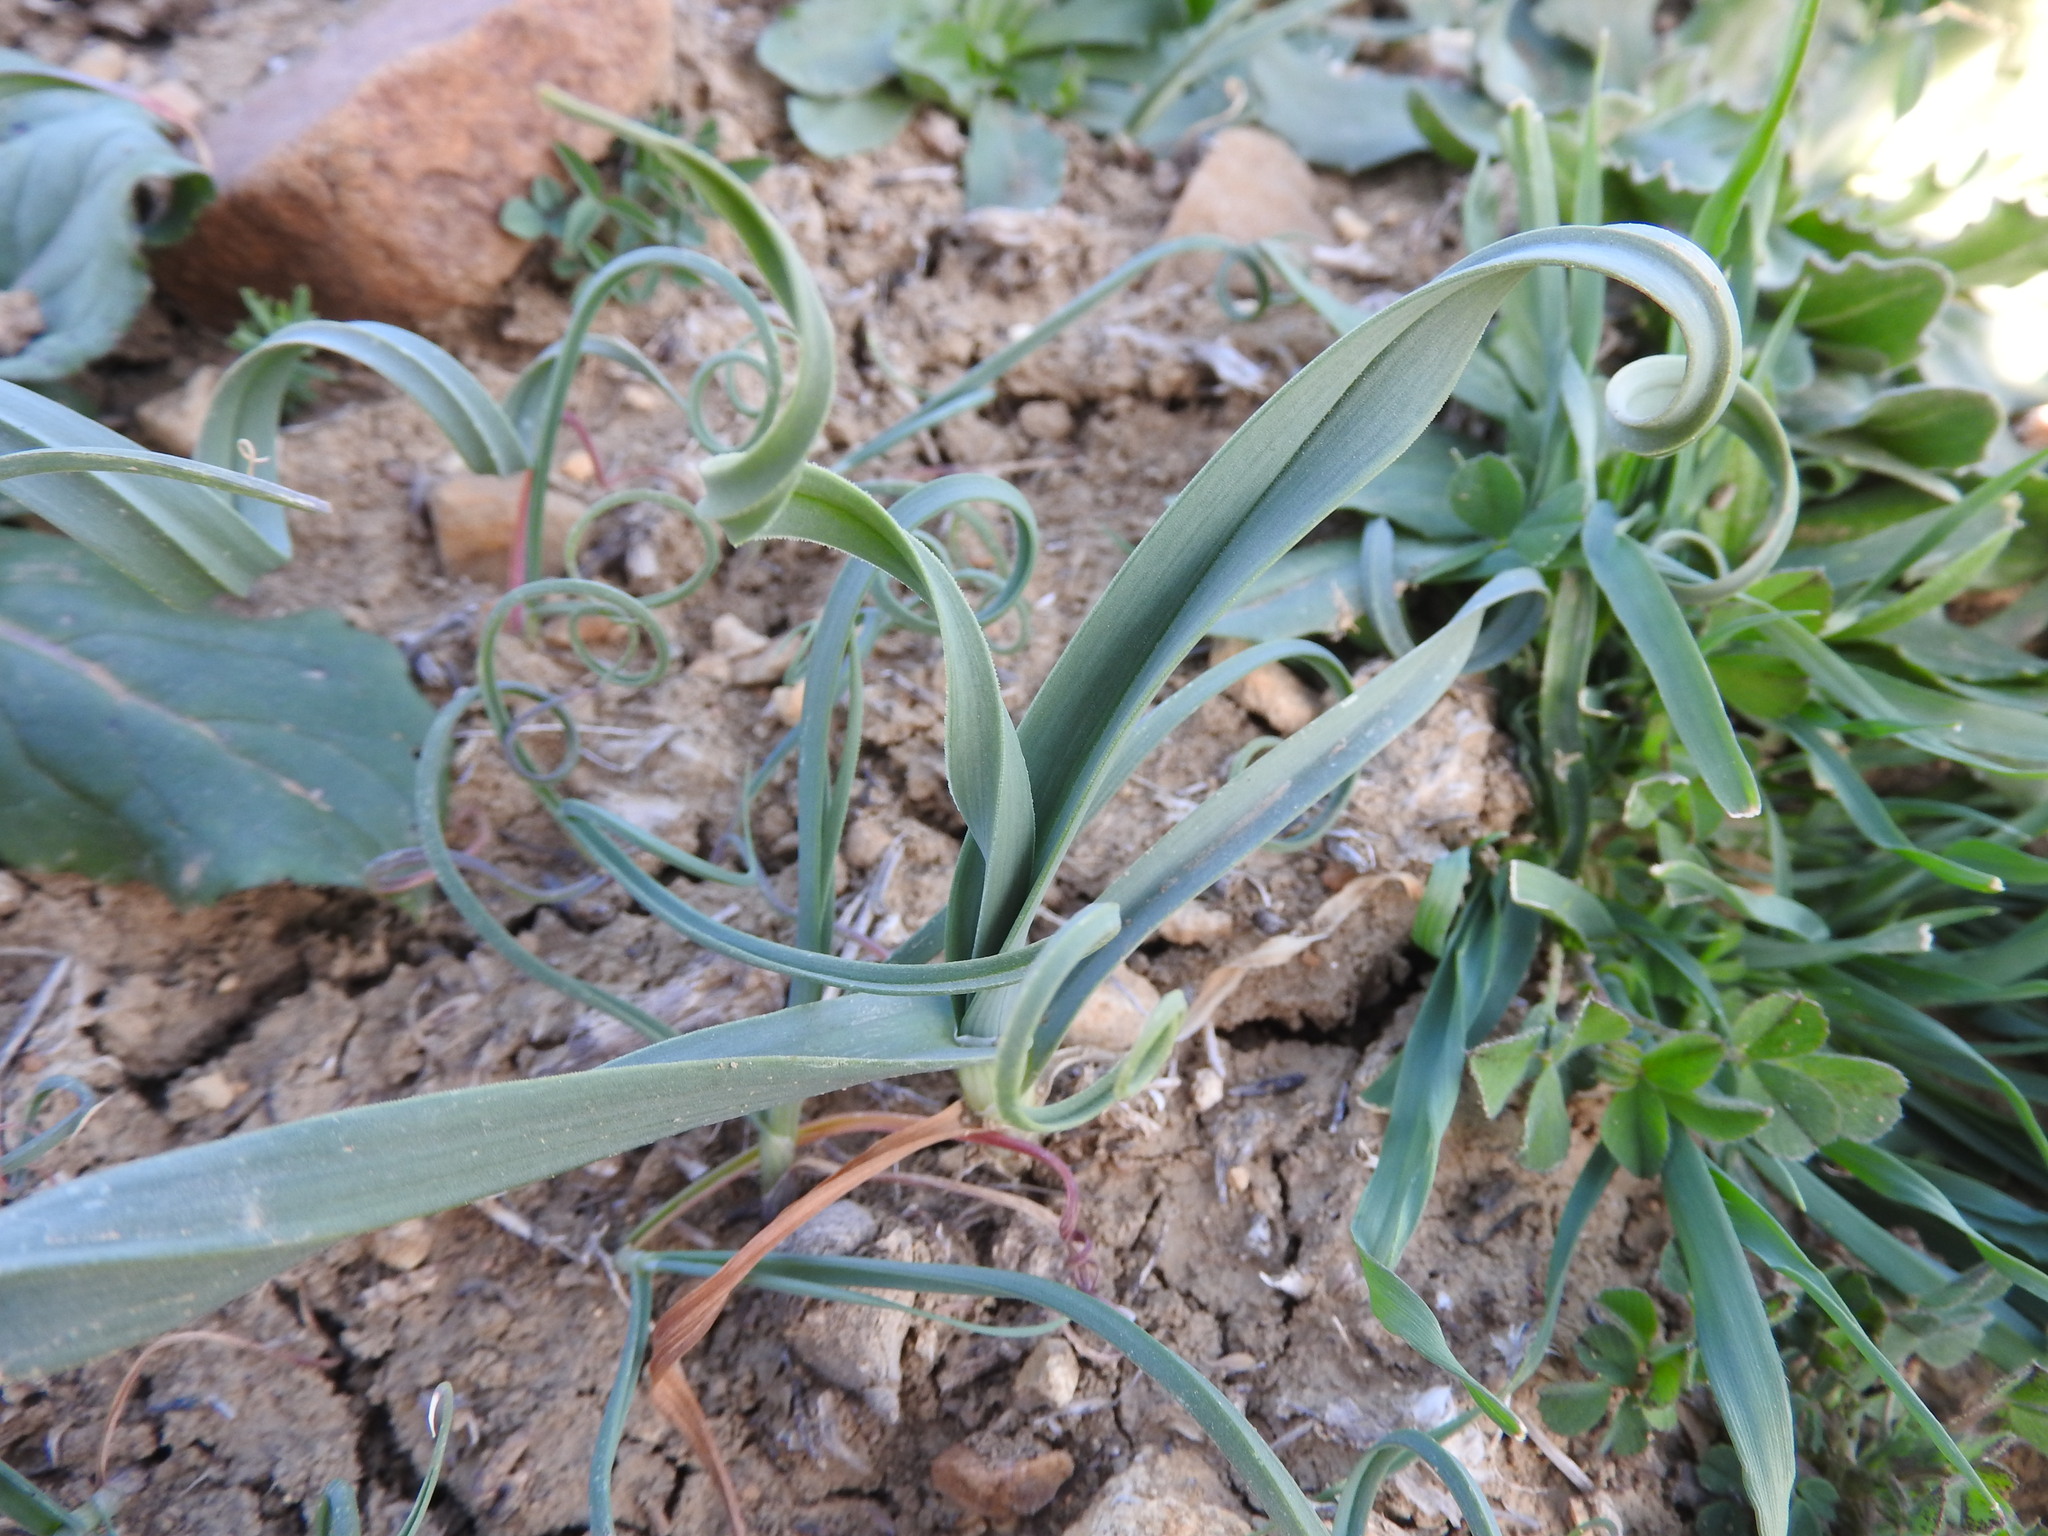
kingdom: Plantae
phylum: Tracheophyta
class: Liliopsida
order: Asparagales
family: Amaryllidaceae
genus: Allium
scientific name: Allium multiflorum
